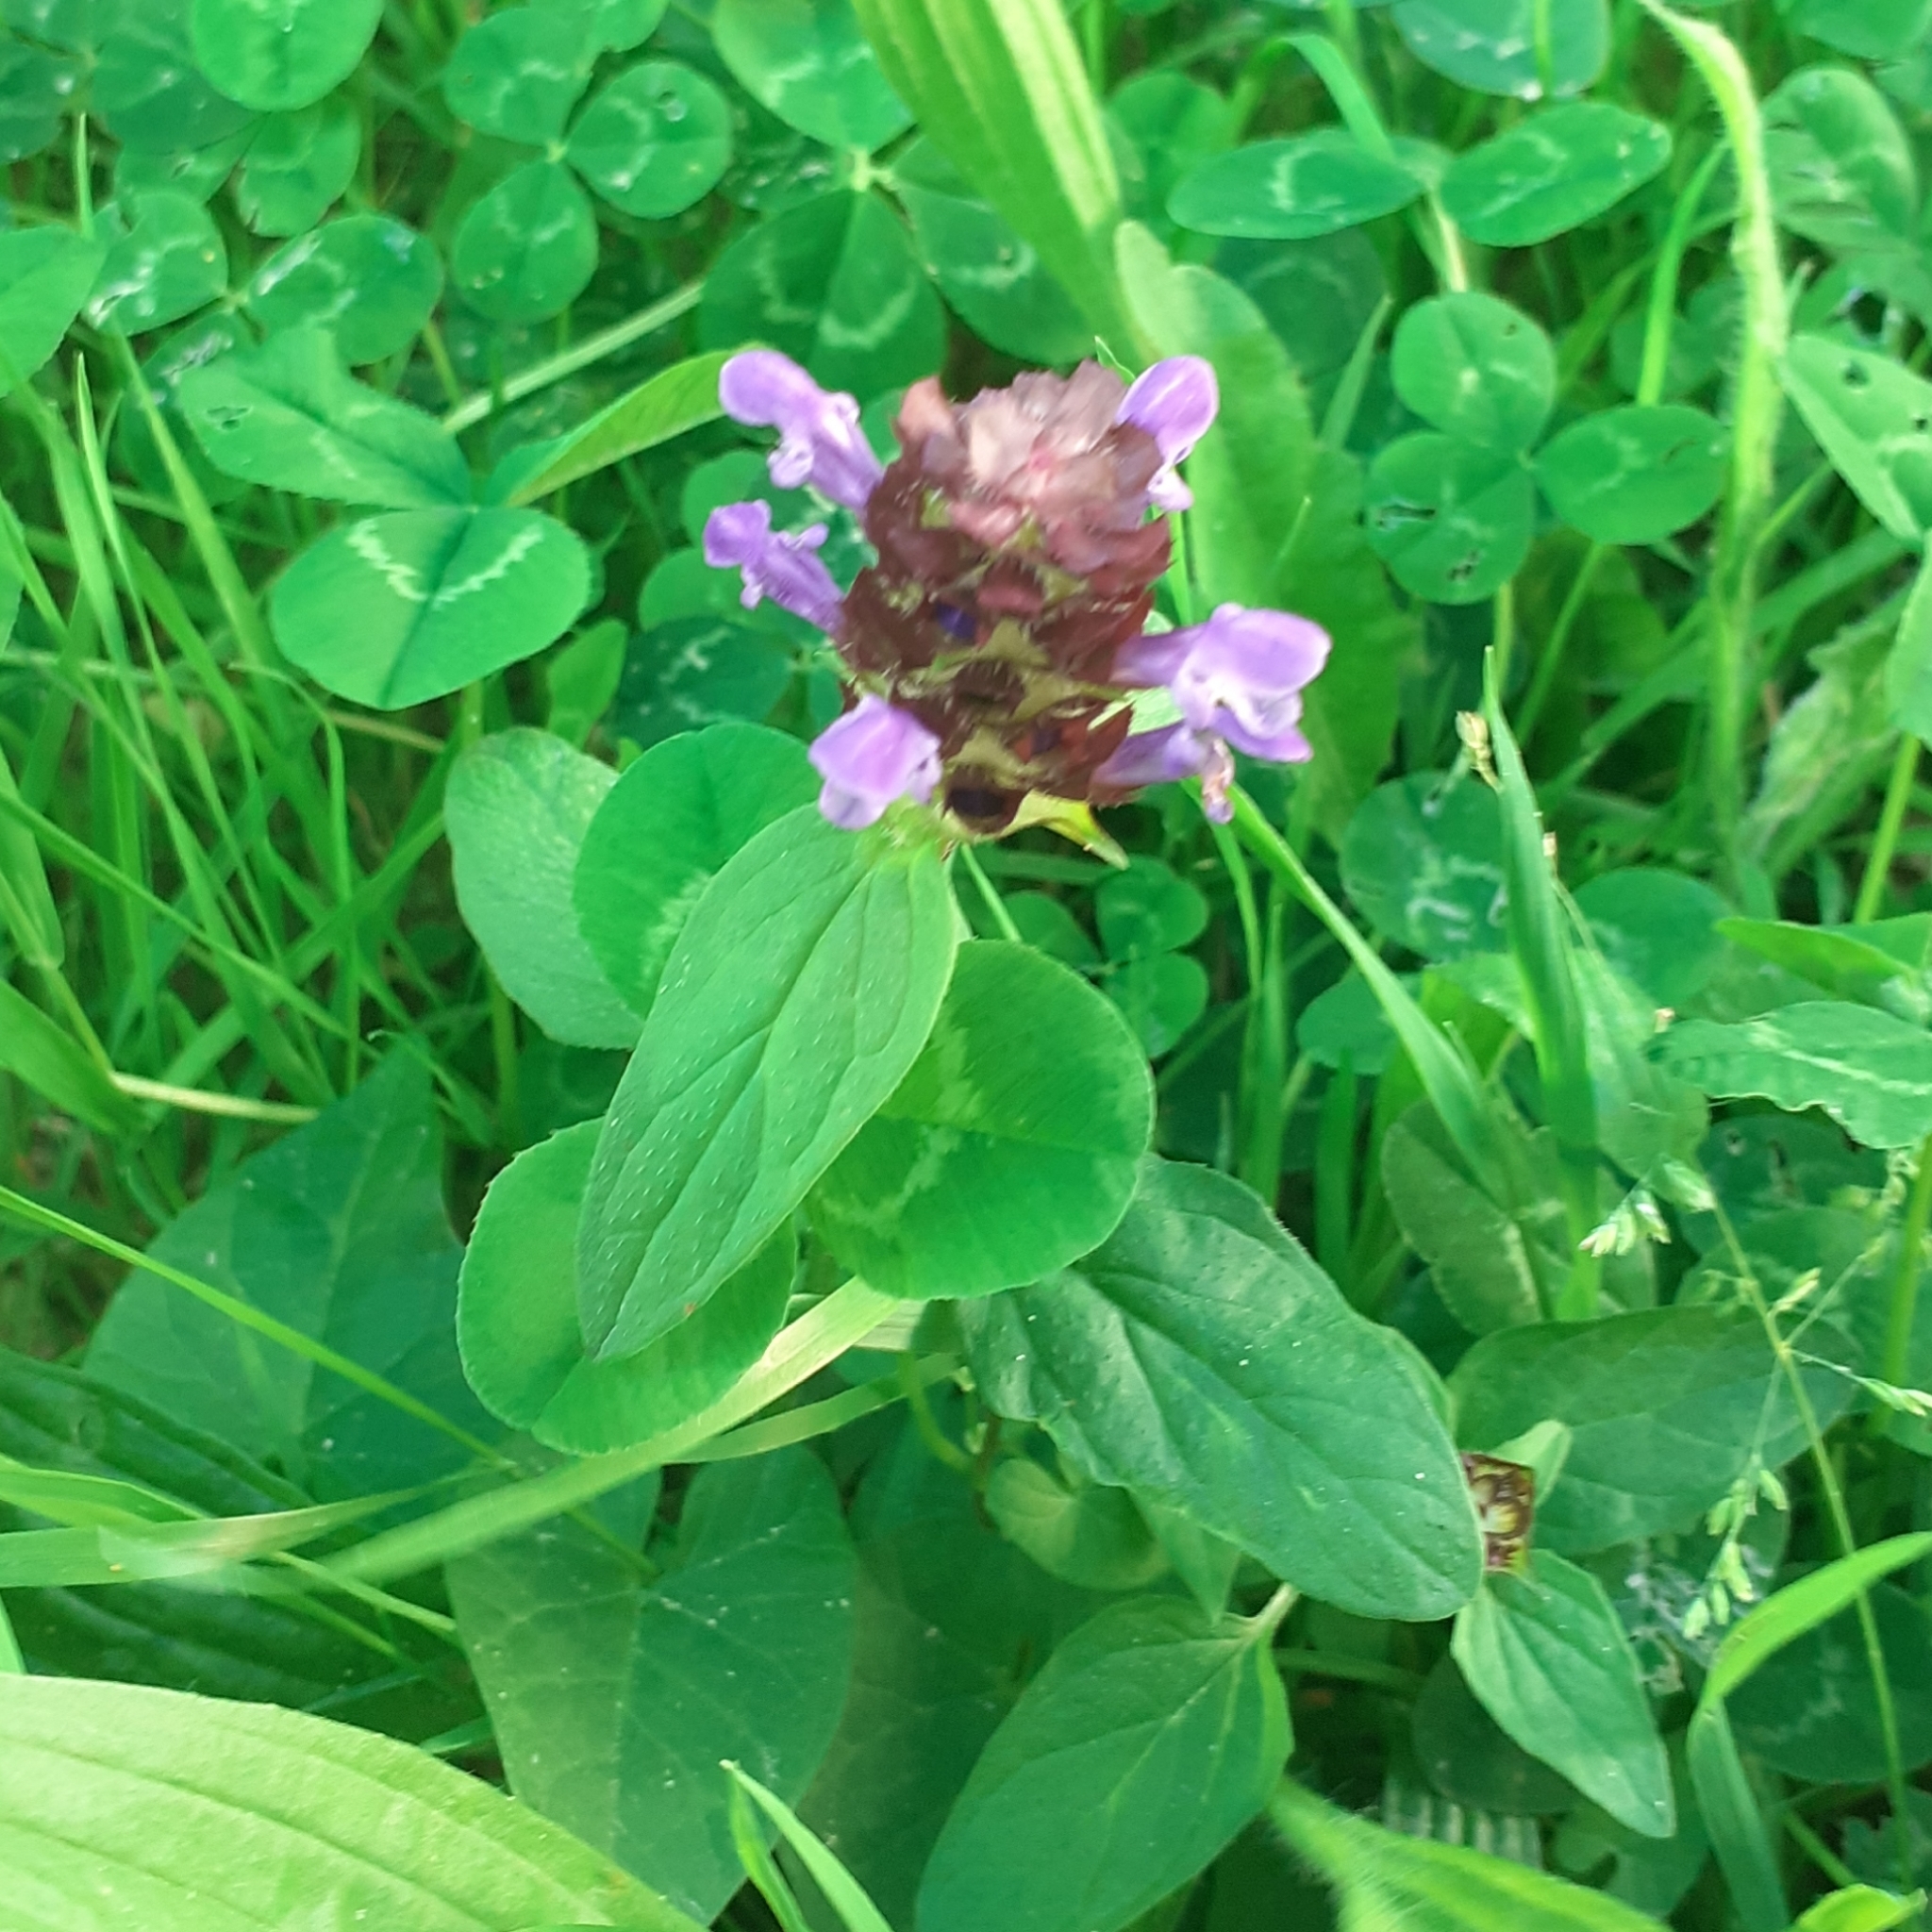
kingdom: Plantae
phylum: Tracheophyta
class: Magnoliopsida
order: Lamiales
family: Lamiaceae
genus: Prunella
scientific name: Prunella vulgaris
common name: Heal-all
